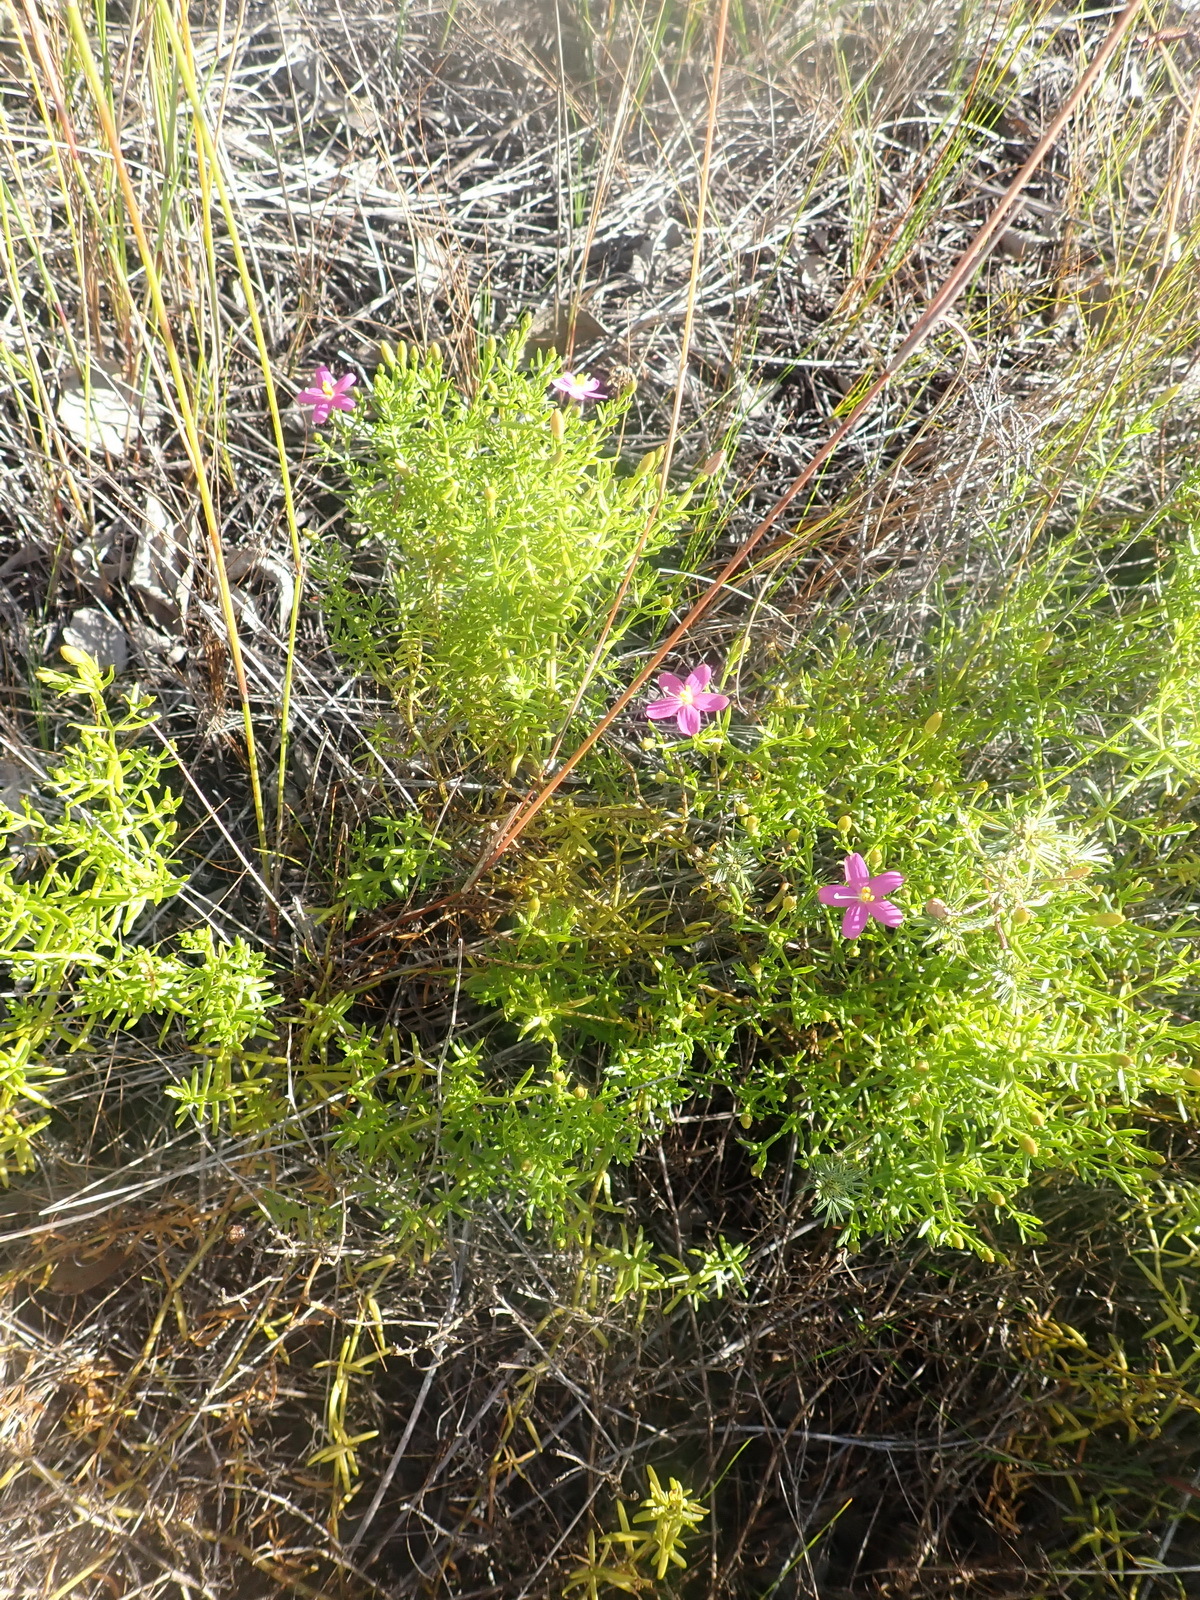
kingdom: Plantae
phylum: Tracheophyta
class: Magnoliopsida
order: Gentianales
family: Gentianaceae
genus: Chironia
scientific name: Chironia baccifera
